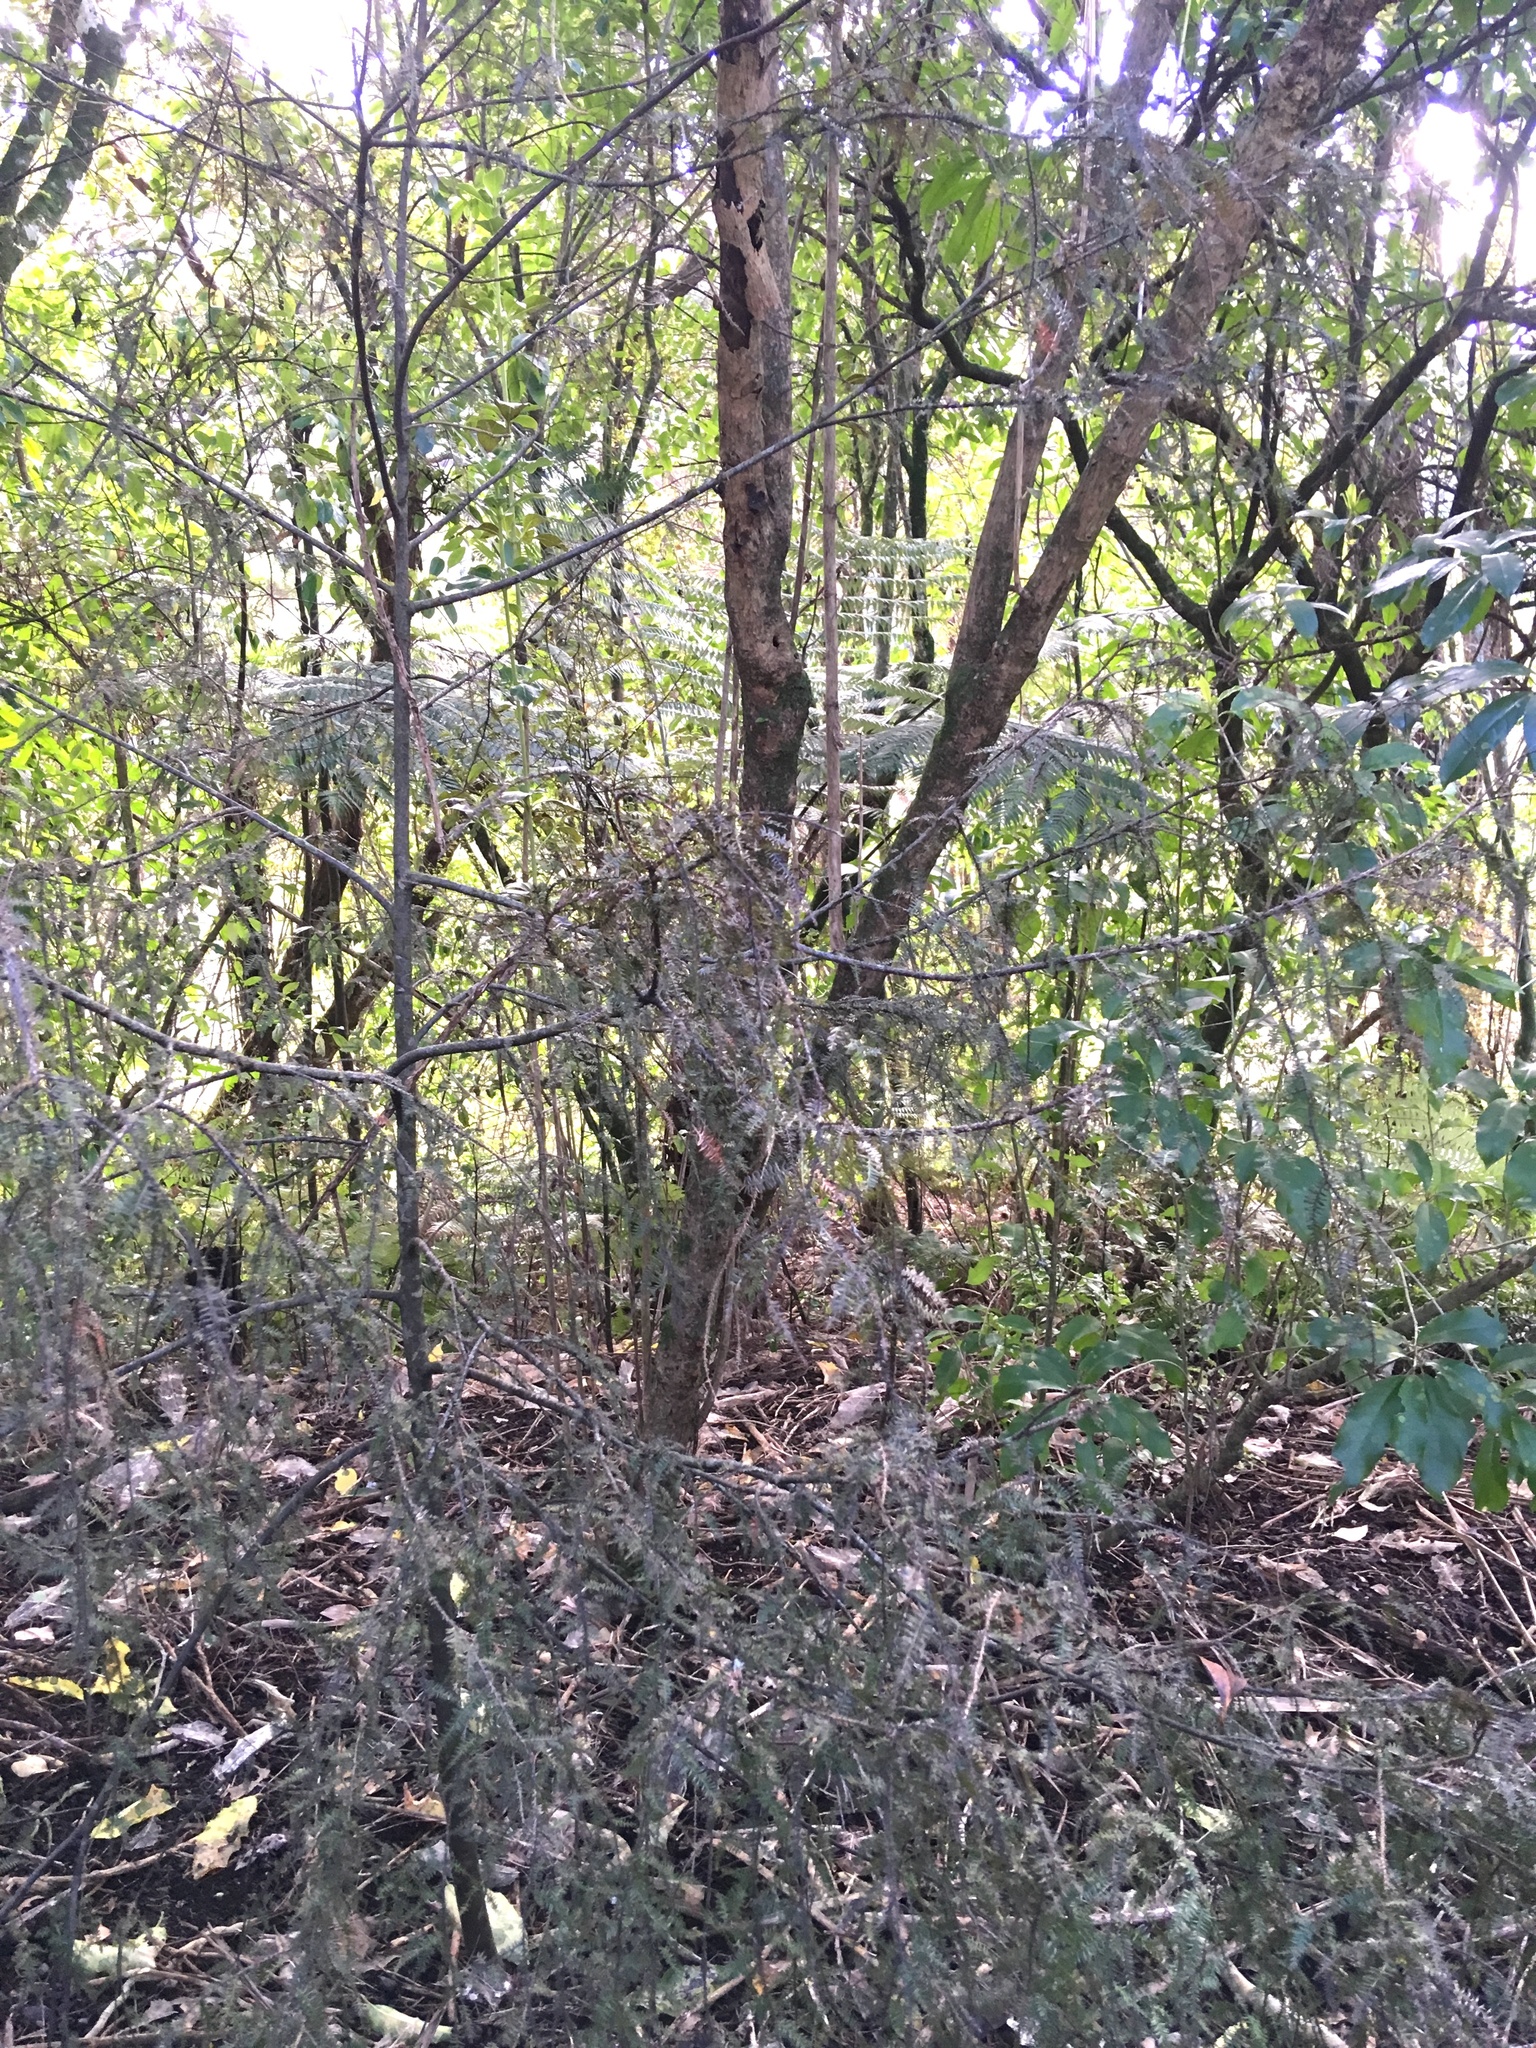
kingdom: Plantae
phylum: Tracheophyta
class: Pinopsida
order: Pinales
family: Podocarpaceae
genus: Dacrycarpus
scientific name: Dacrycarpus dacrydioides
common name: White pine
